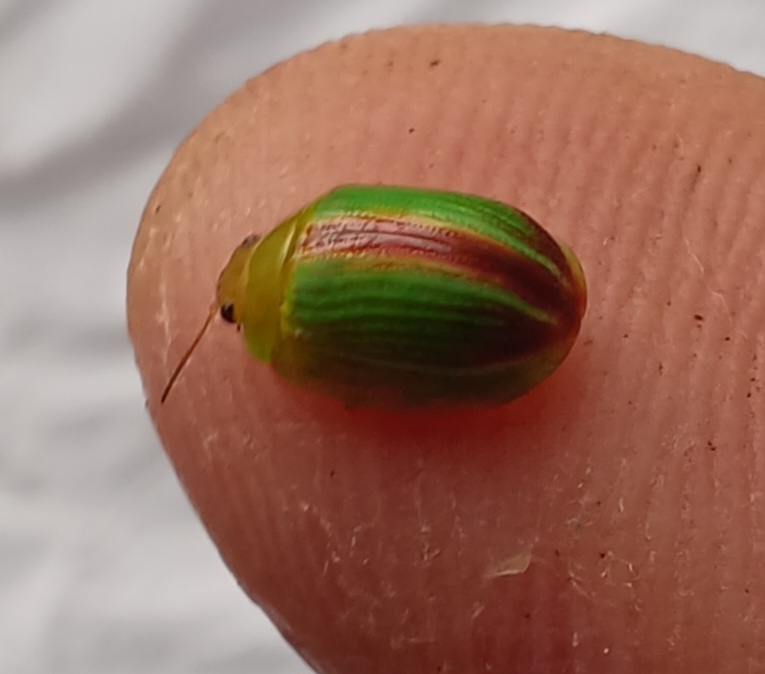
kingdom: Animalia
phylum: Arthropoda
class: Insecta
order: Coleoptera
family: Chrysomelidae
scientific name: Chrysomelidae
